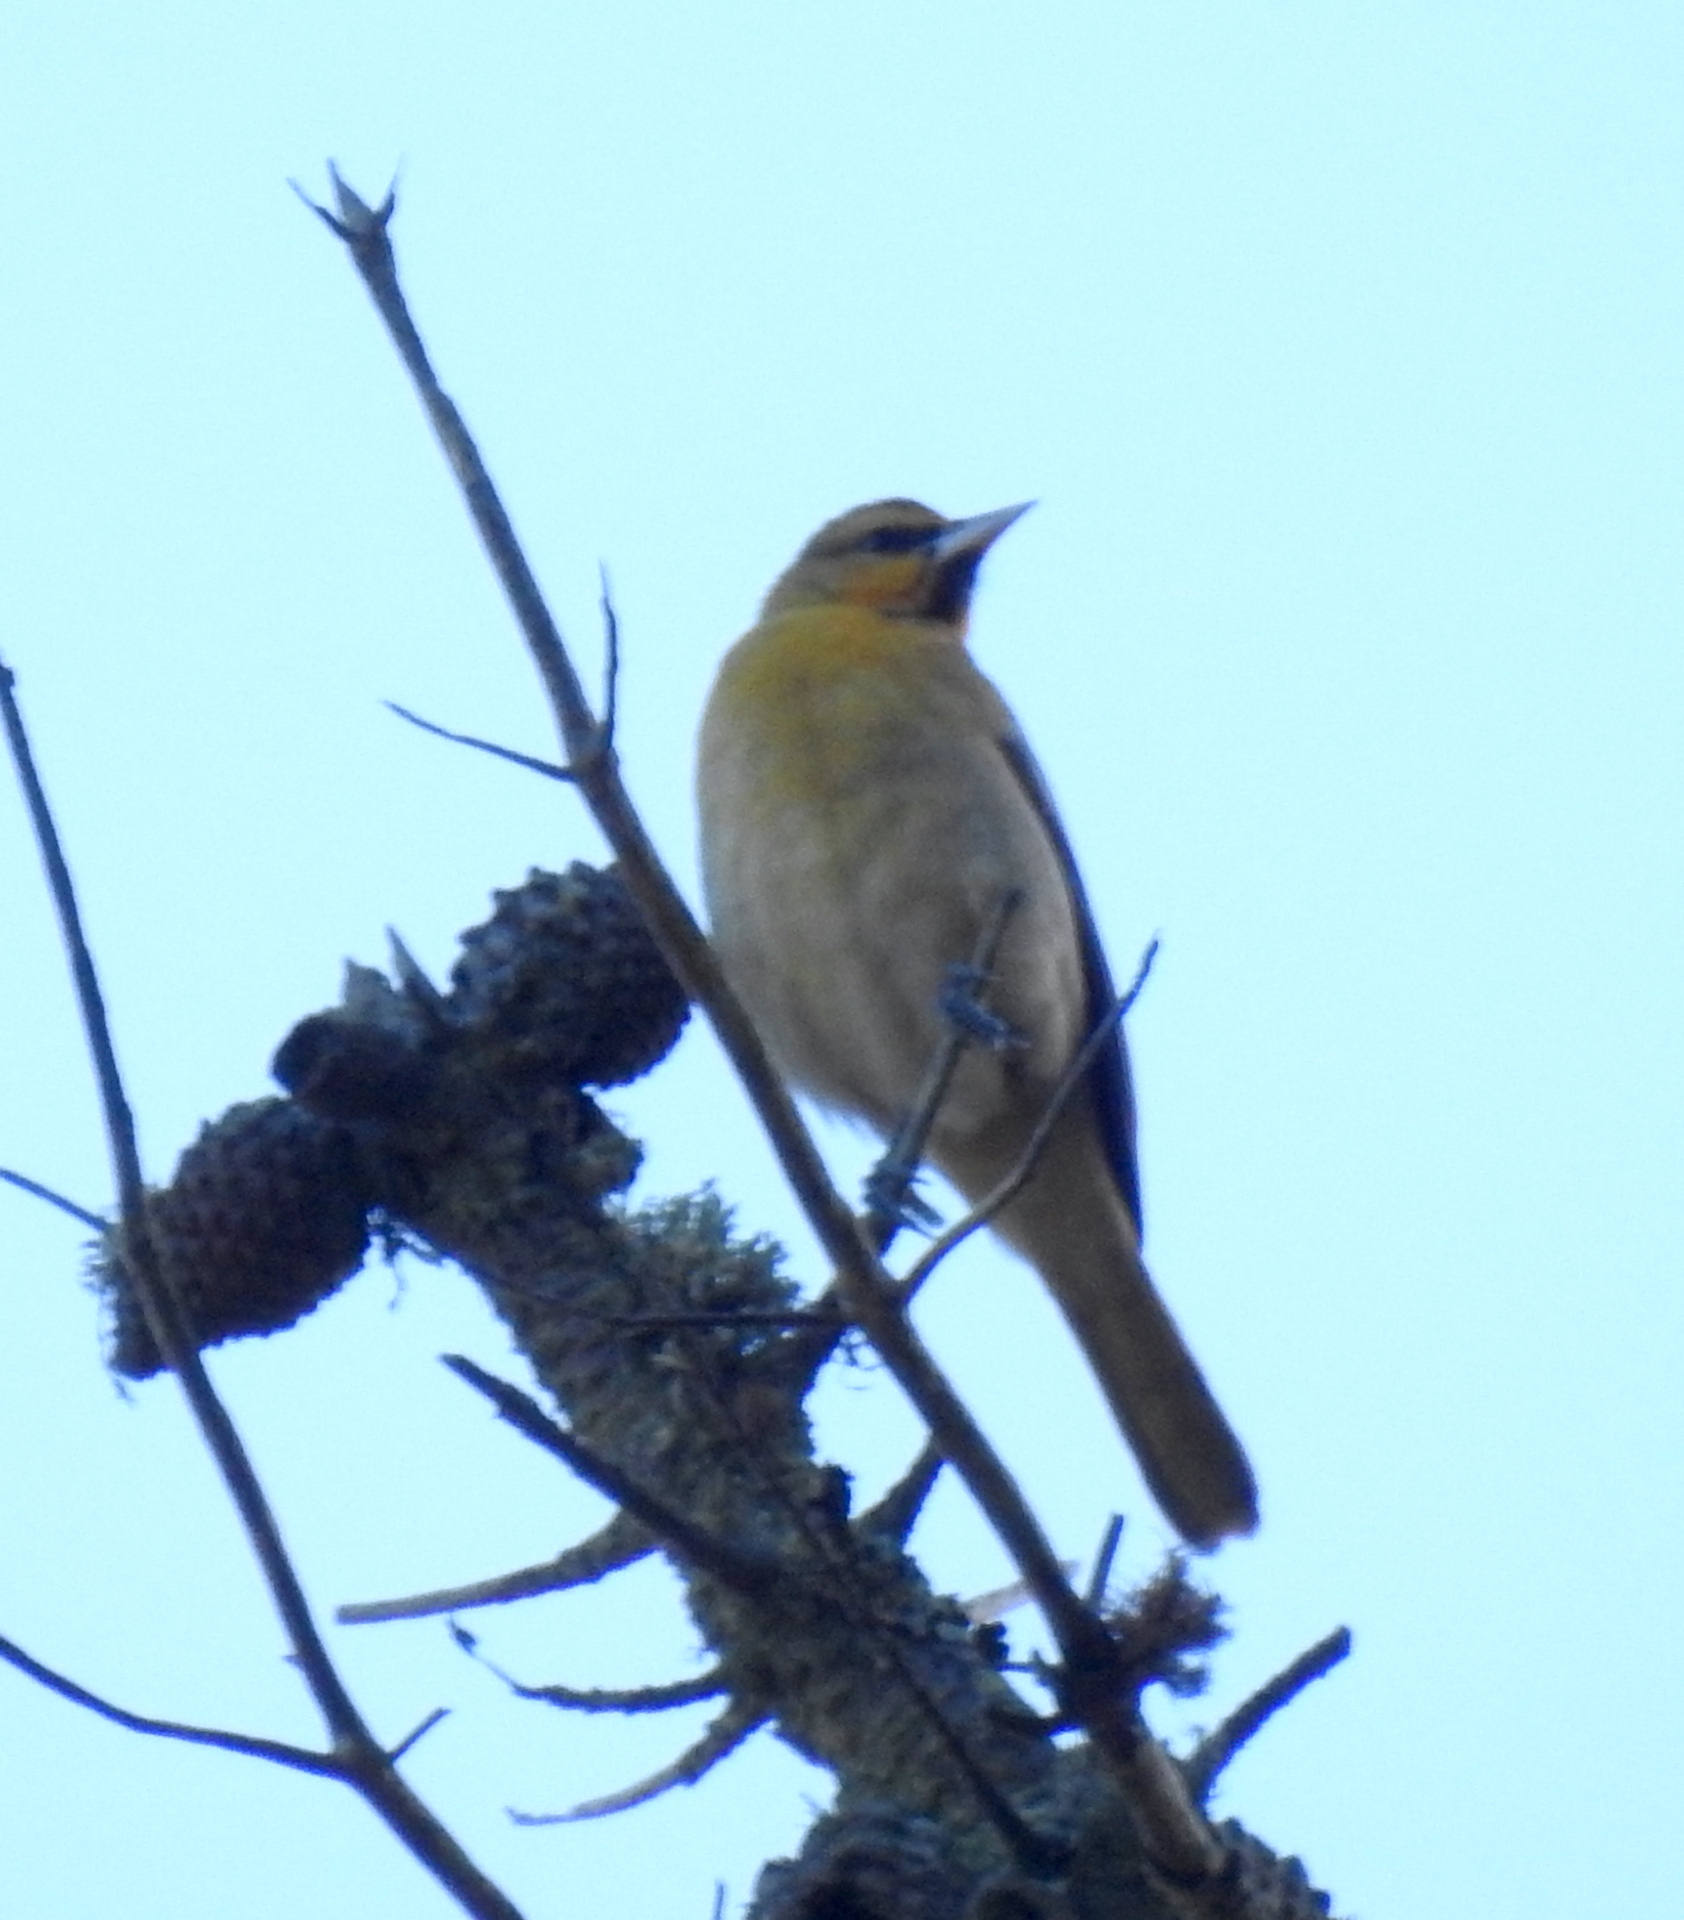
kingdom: Animalia
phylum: Chordata
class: Aves
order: Passeriformes
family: Icteridae
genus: Icterus
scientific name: Icterus bullockii
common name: Bullock's oriole
